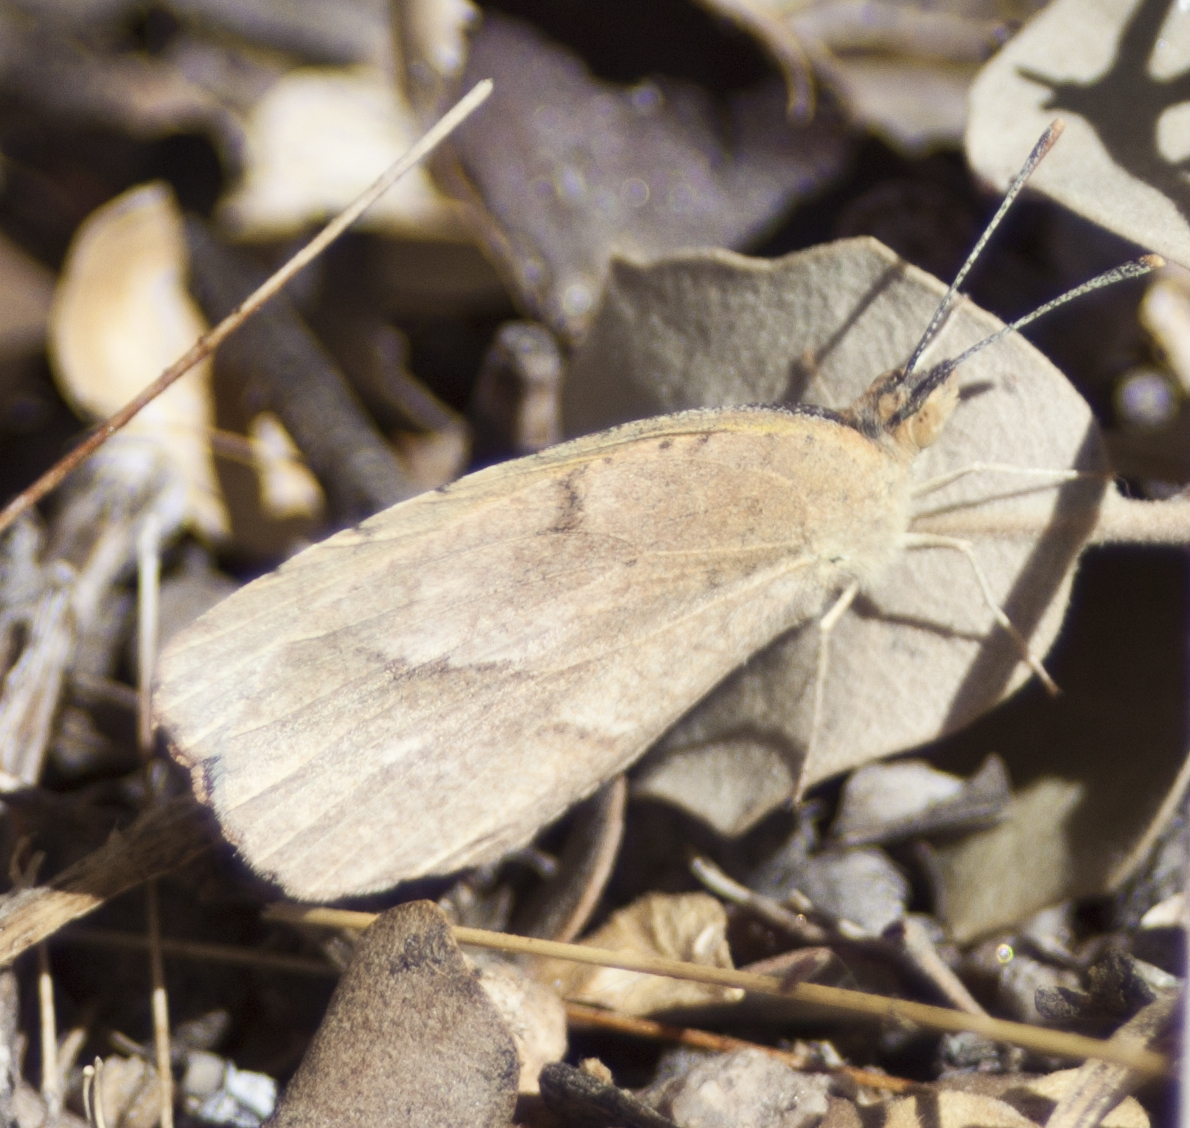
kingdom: Animalia
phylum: Arthropoda
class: Insecta
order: Lepidoptera
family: Pieridae
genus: Abaeis
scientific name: Abaeis nicippe
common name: Sleepy orange
